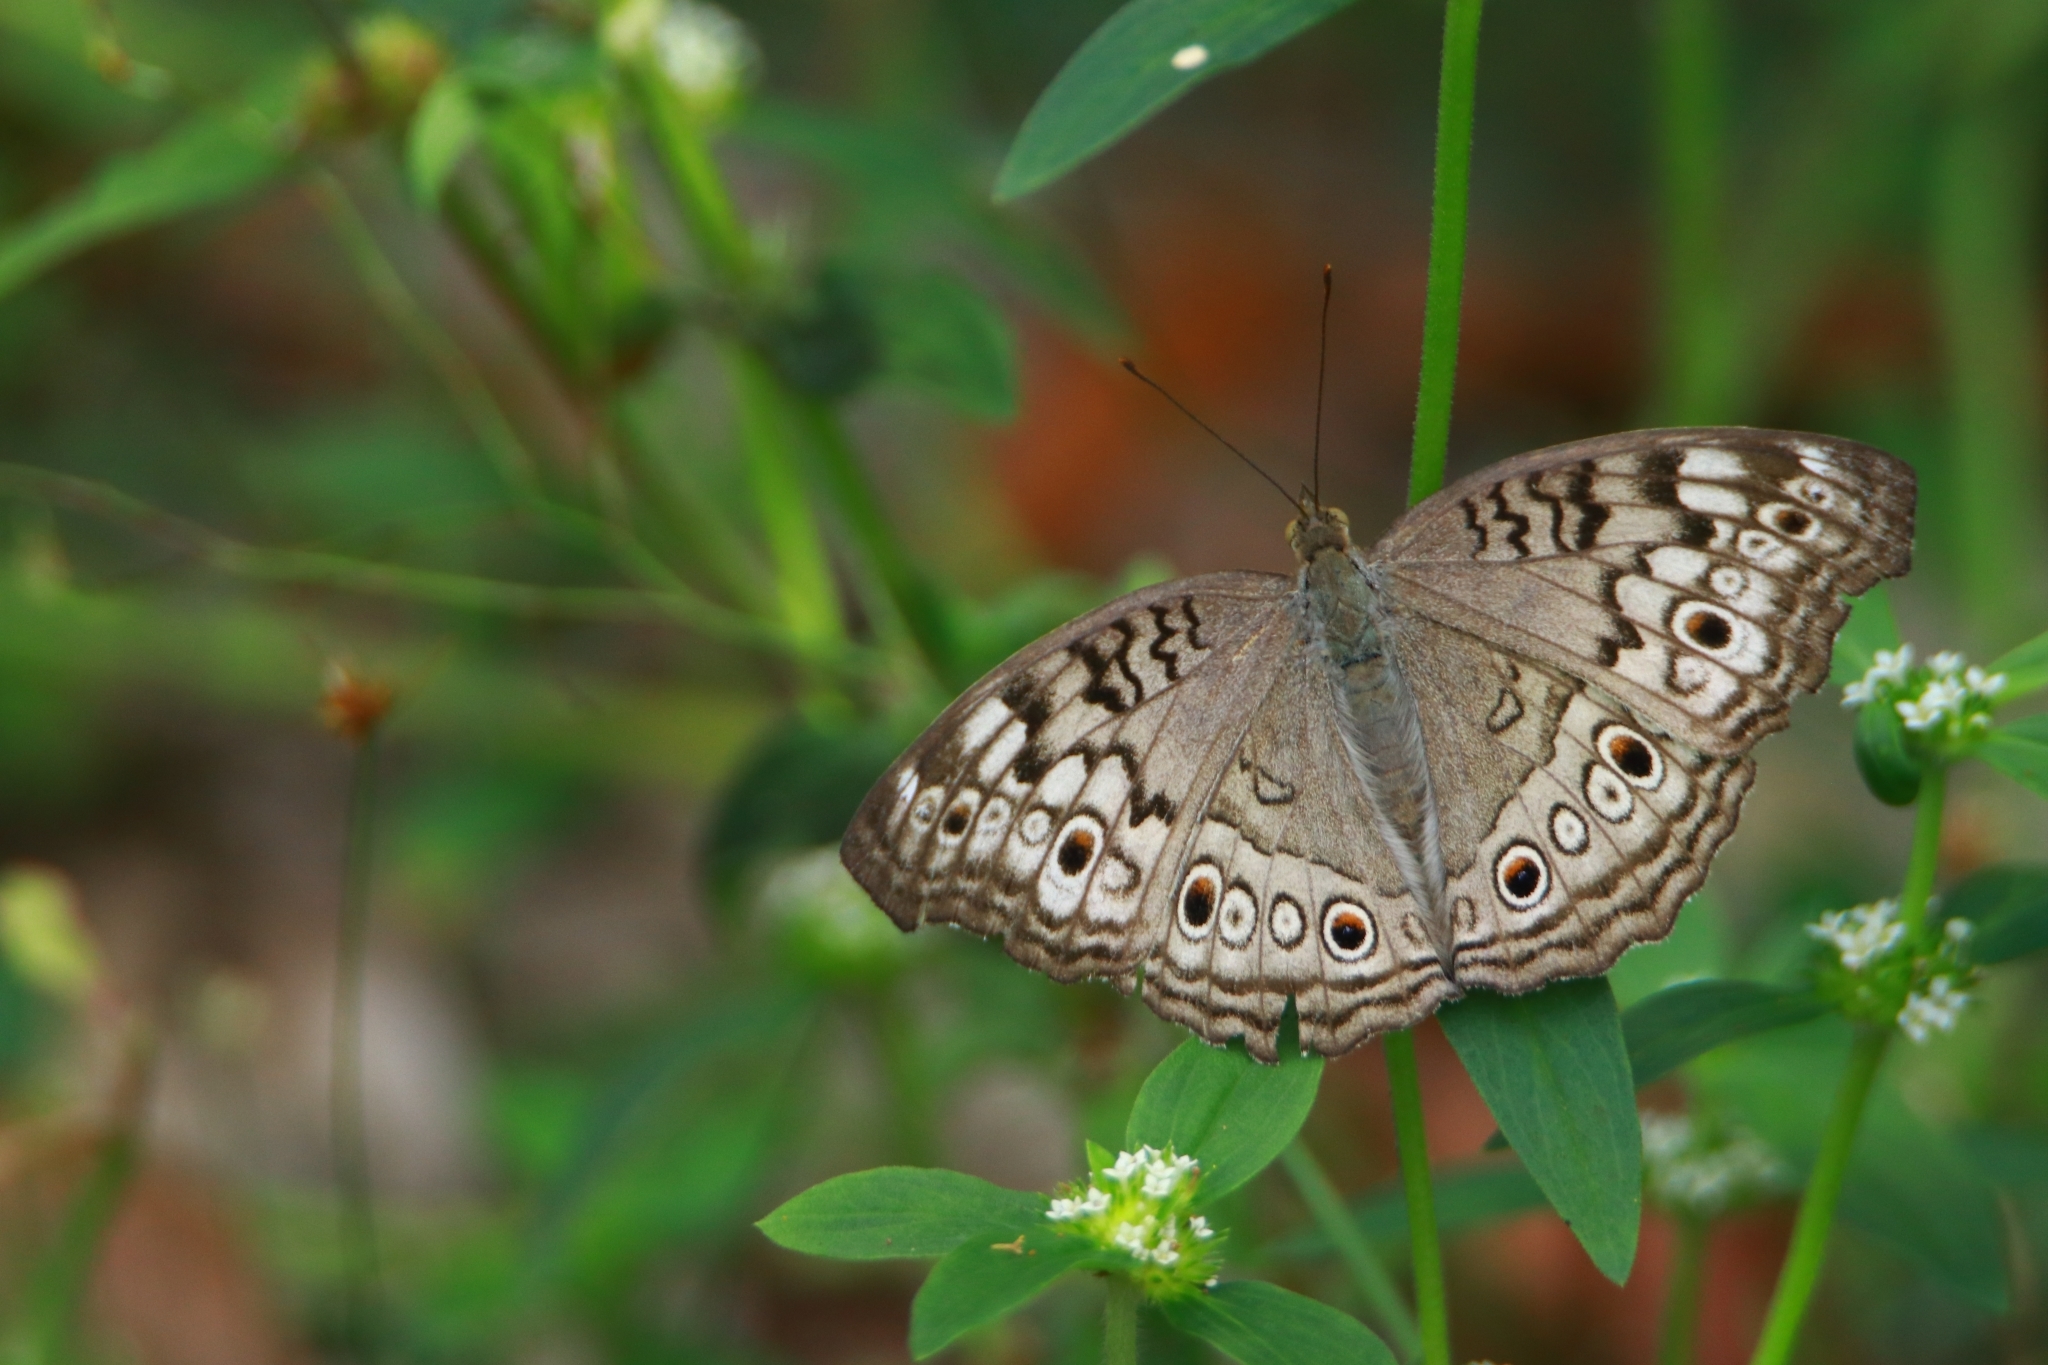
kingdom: Animalia
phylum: Arthropoda
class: Insecta
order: Lepidoptera
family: Nymphalidae
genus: Junonia
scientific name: Junonia atlites
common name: Grey pansy
